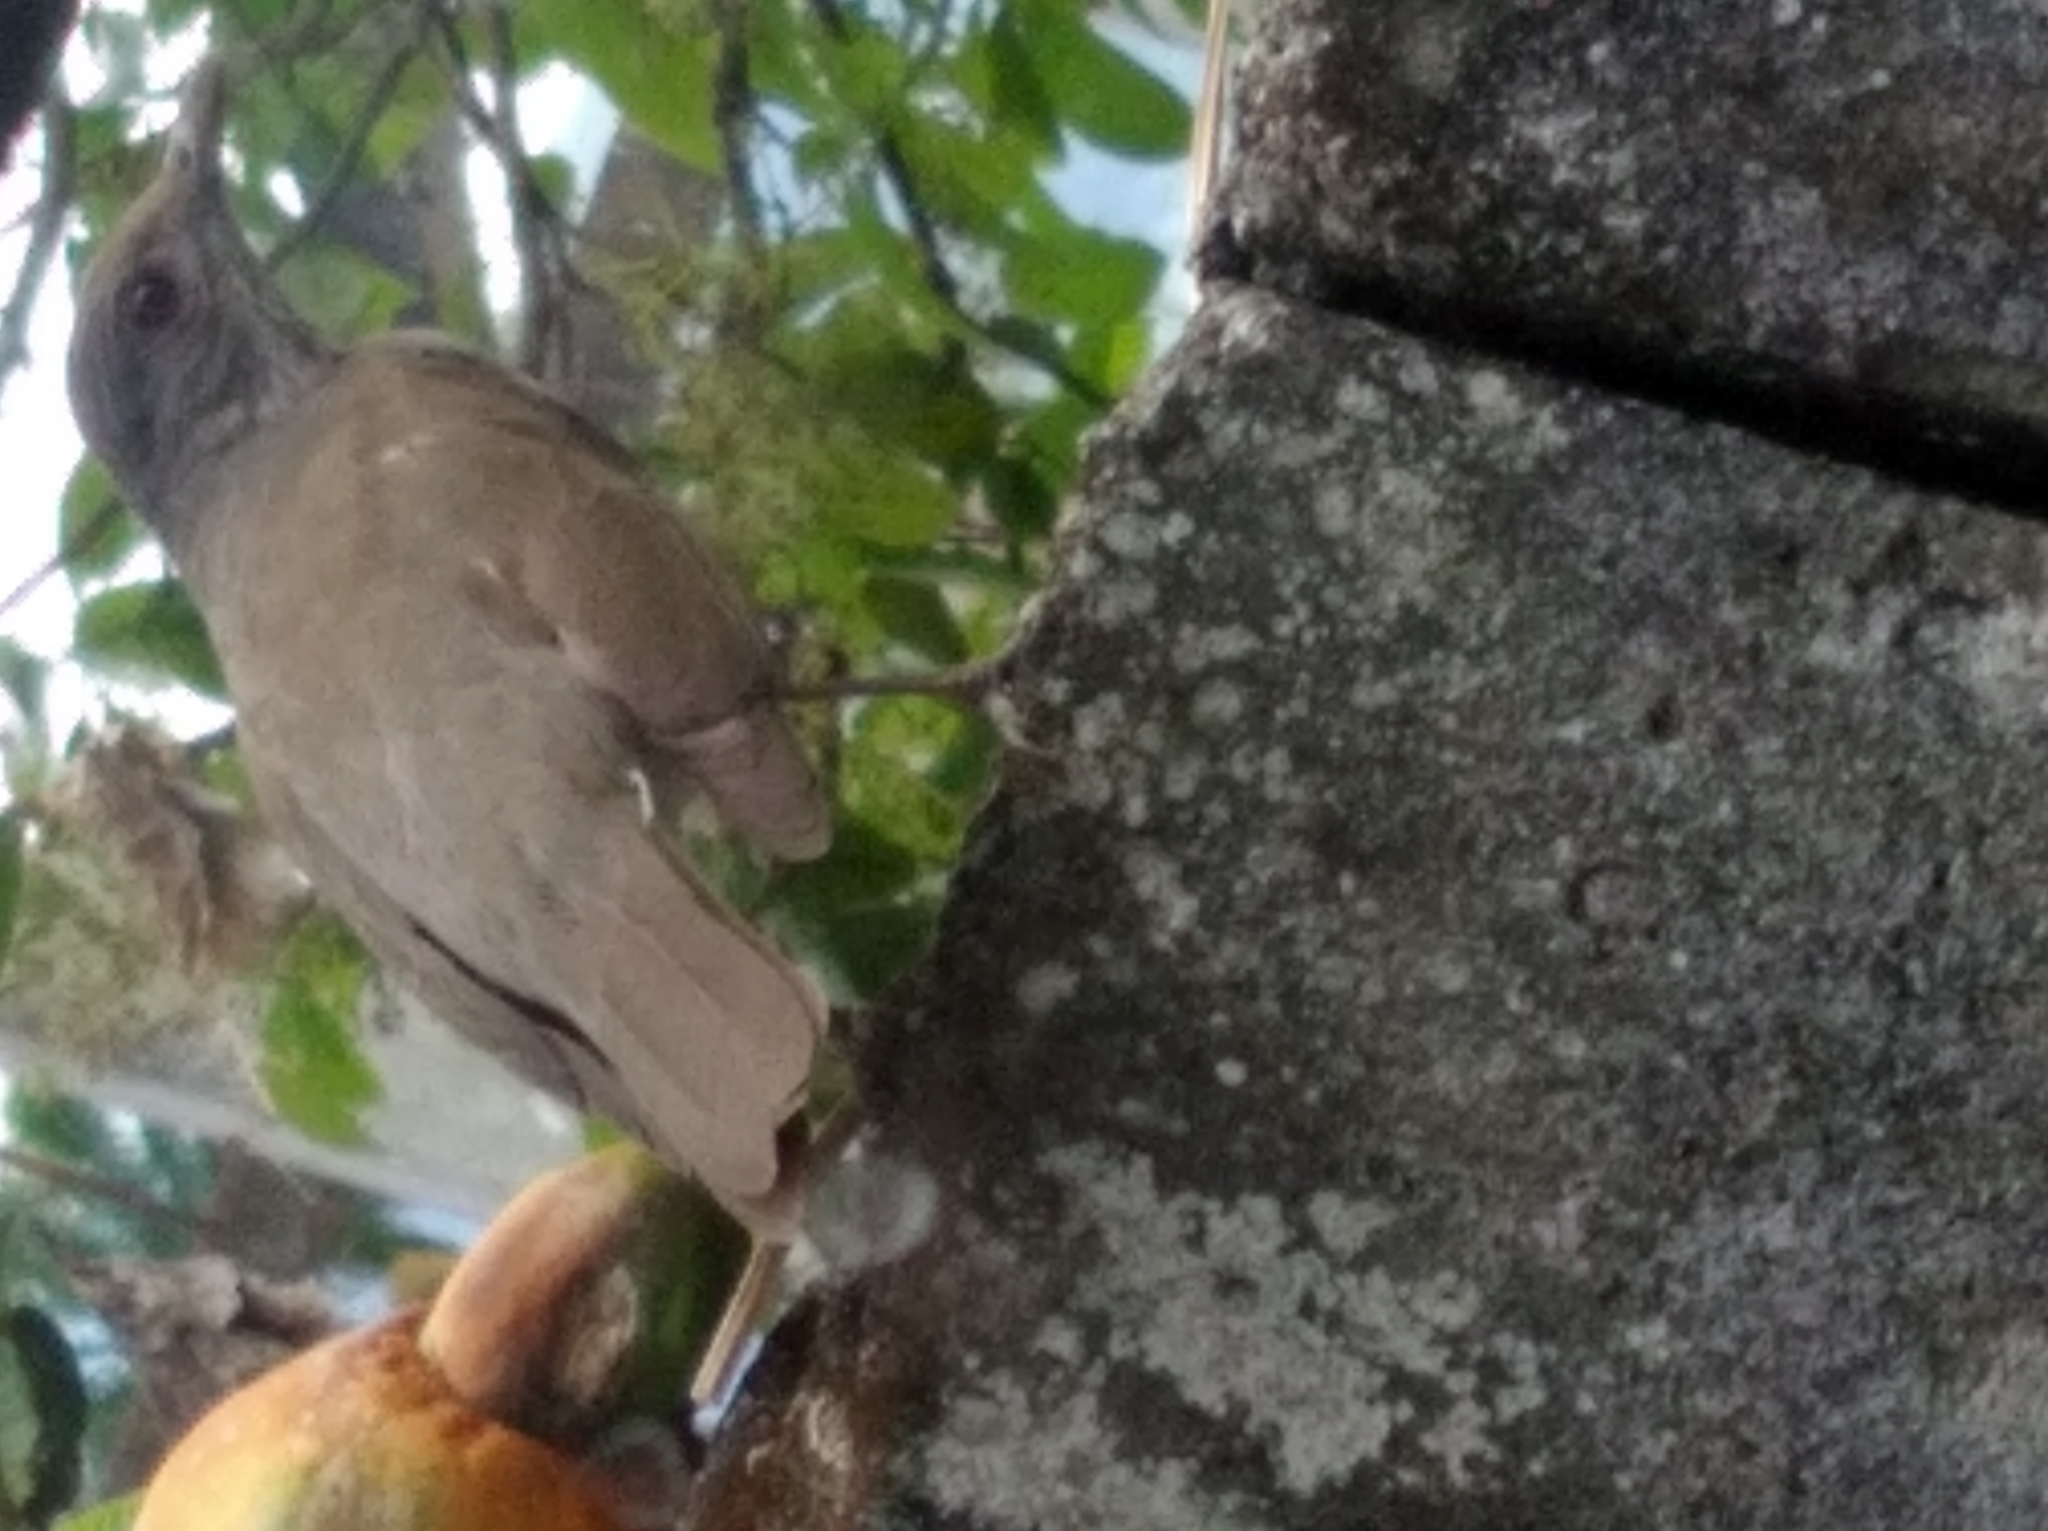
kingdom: Animalia
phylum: Chordata
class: Aves
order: Passeriformes
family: Turdidae
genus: Turdus
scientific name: Turdus leucomelas
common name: Pale-breasted thrush
